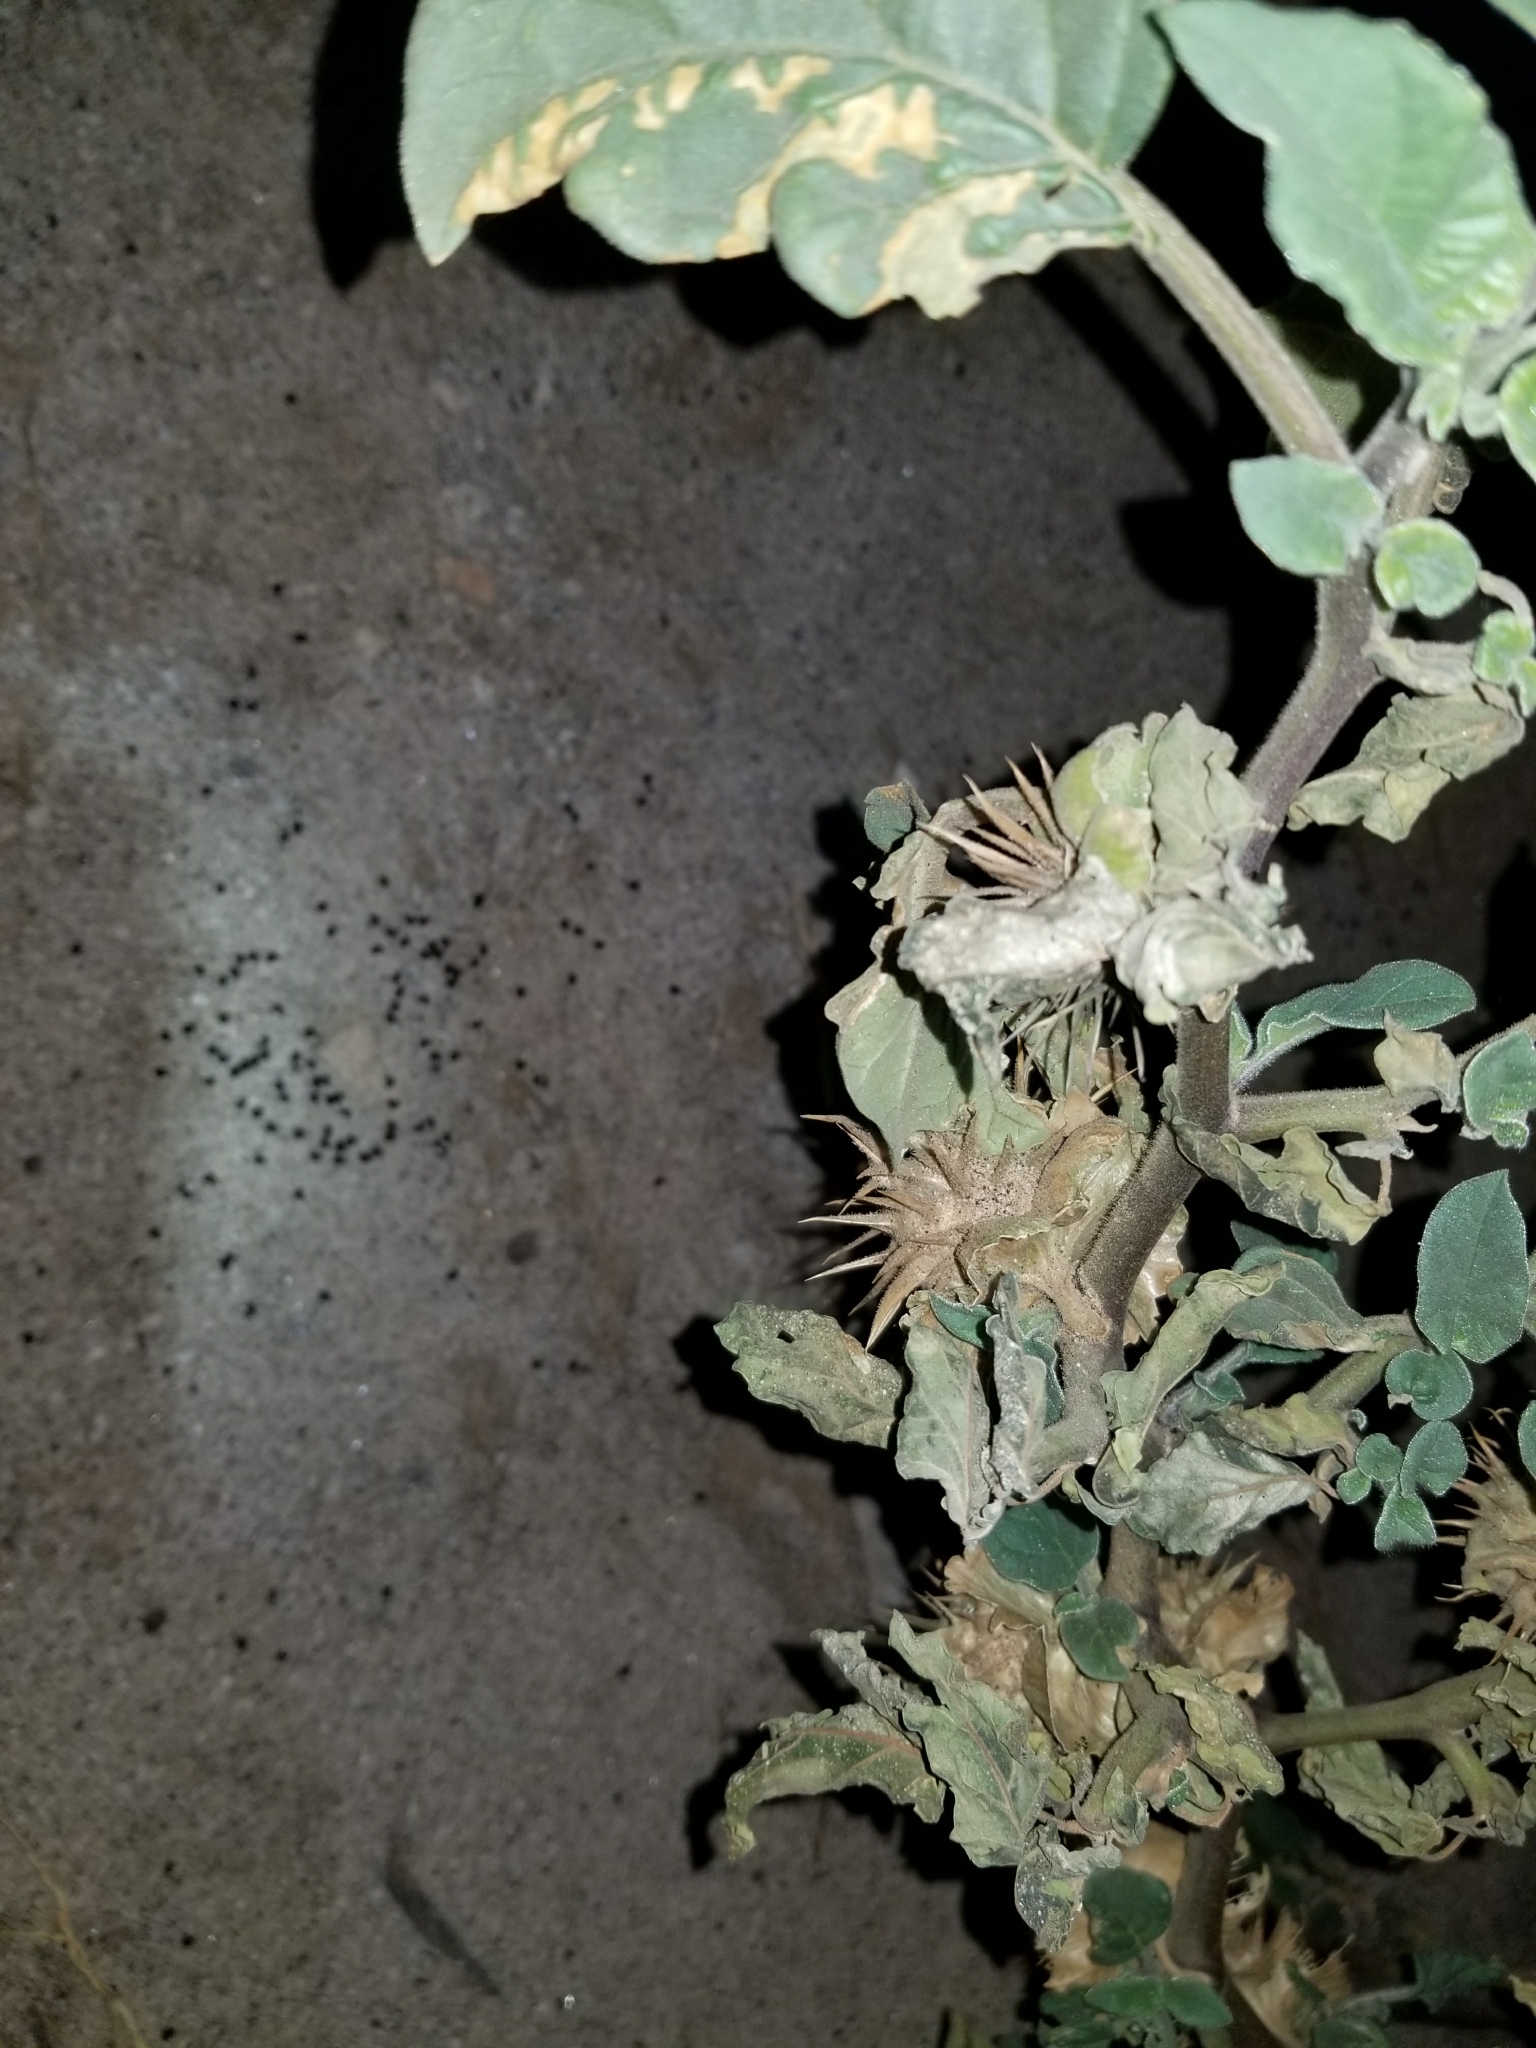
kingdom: Plantae
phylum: Tracheophyta
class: Magnoliopsida
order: Solanales
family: Solanaceae
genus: Datura
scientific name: Datura discolor
